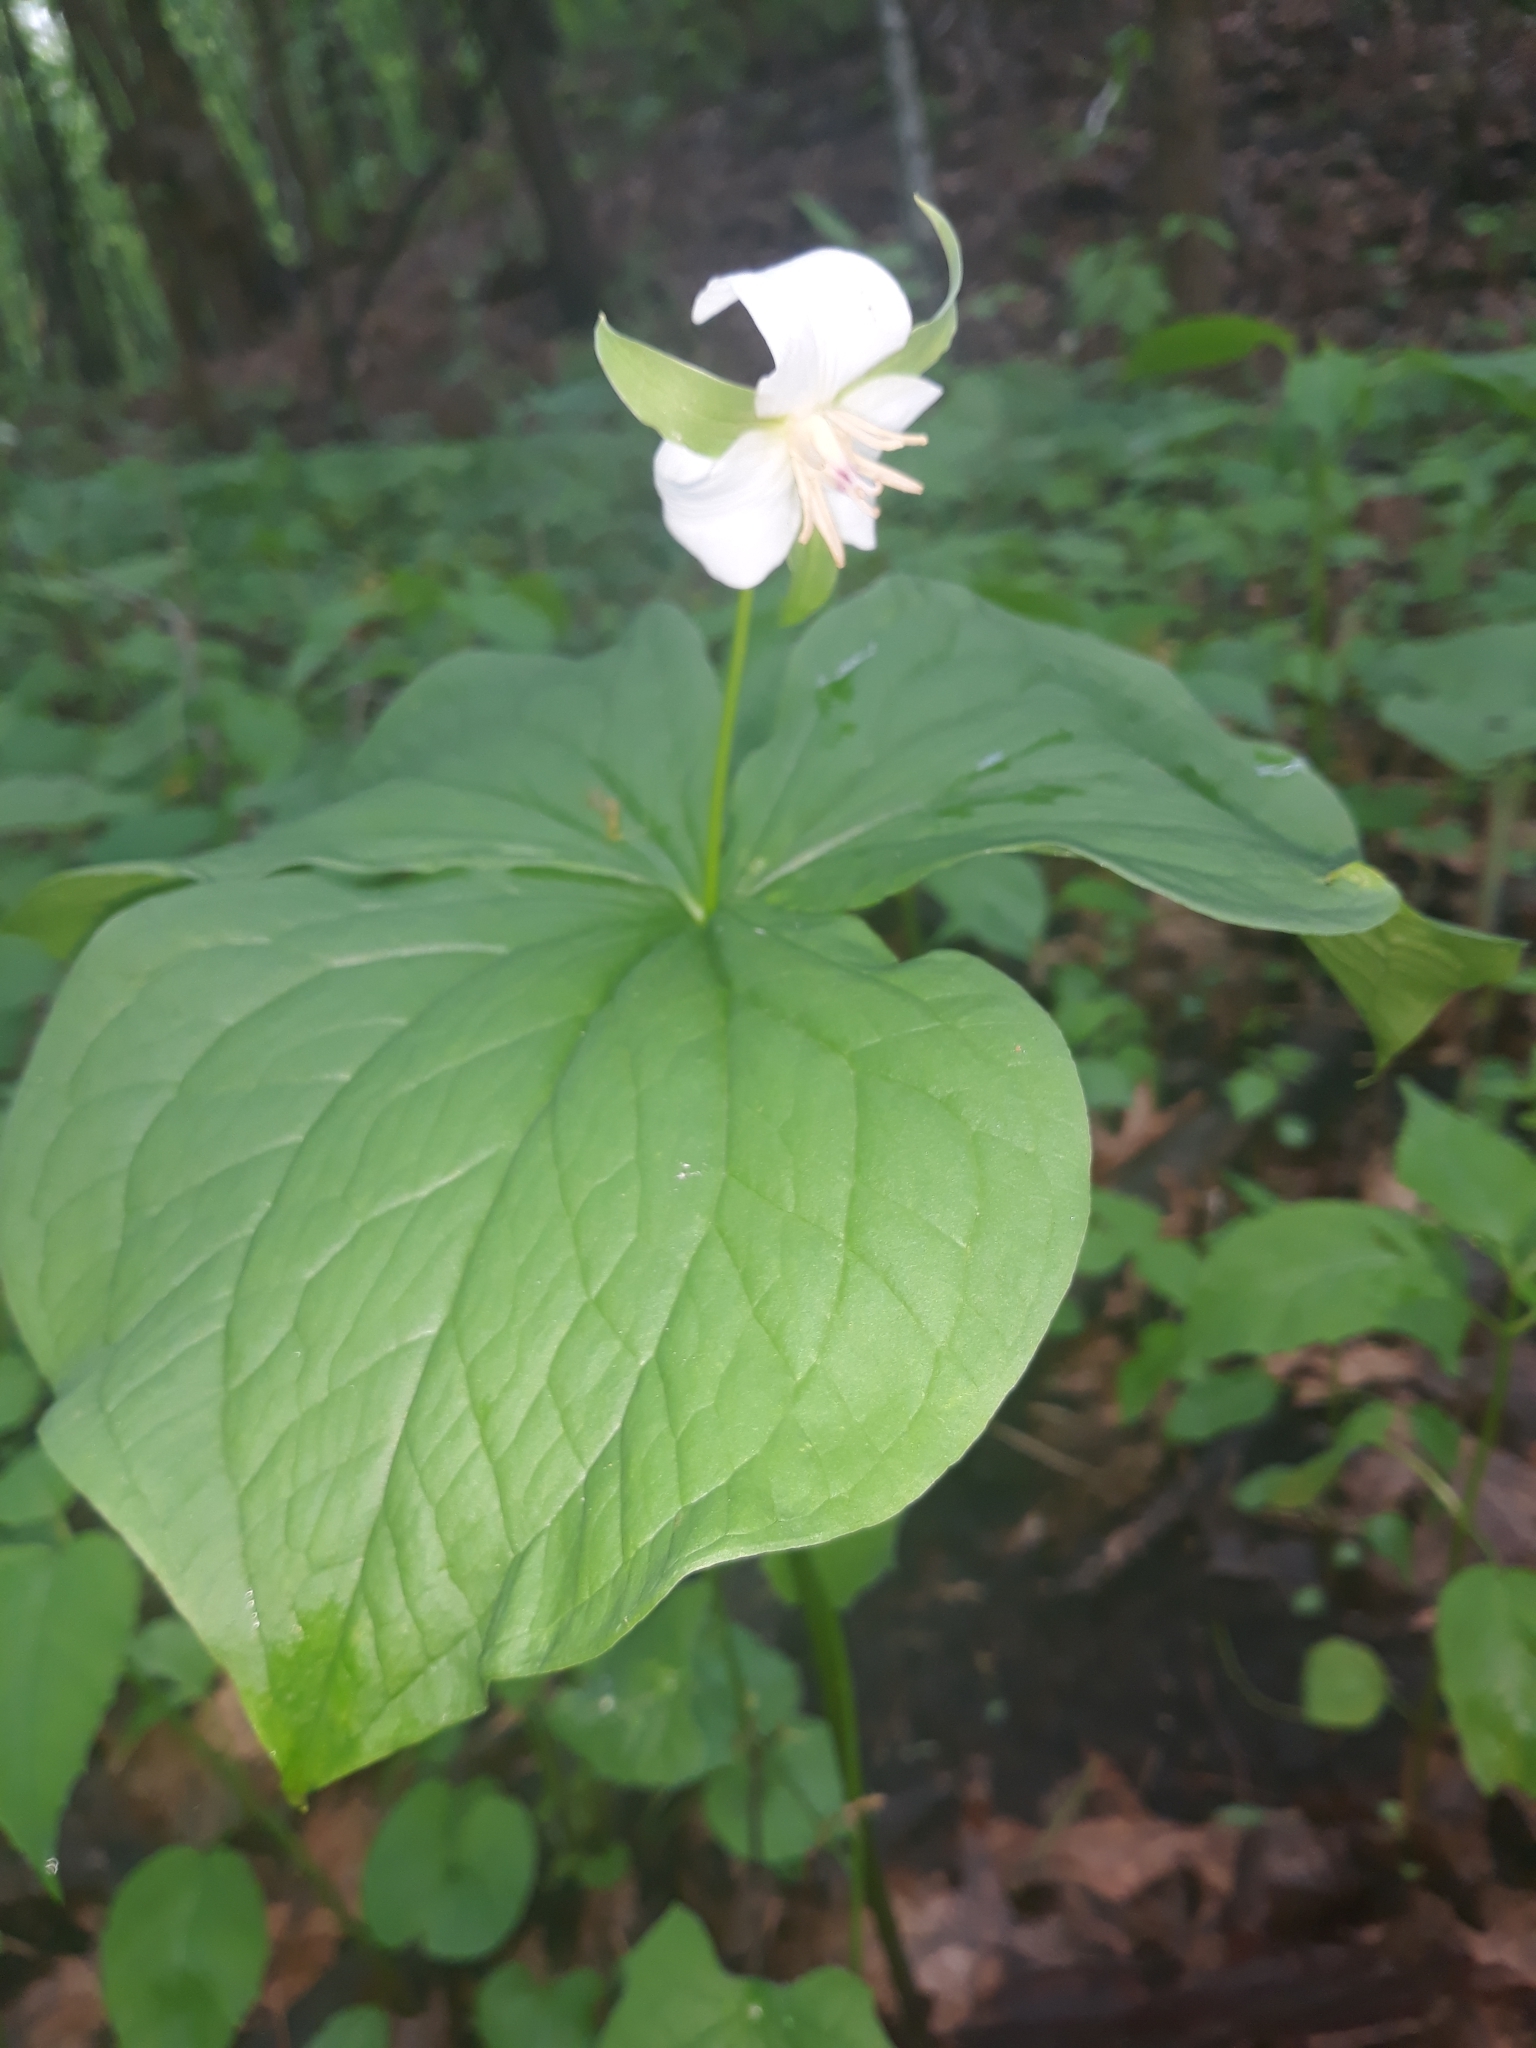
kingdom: Plantae
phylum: Tracheophyta
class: Liliopsida
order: Liliales
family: Melanthiaceae
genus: Trillium
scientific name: Trillium flexipes
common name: Drooping trillium
